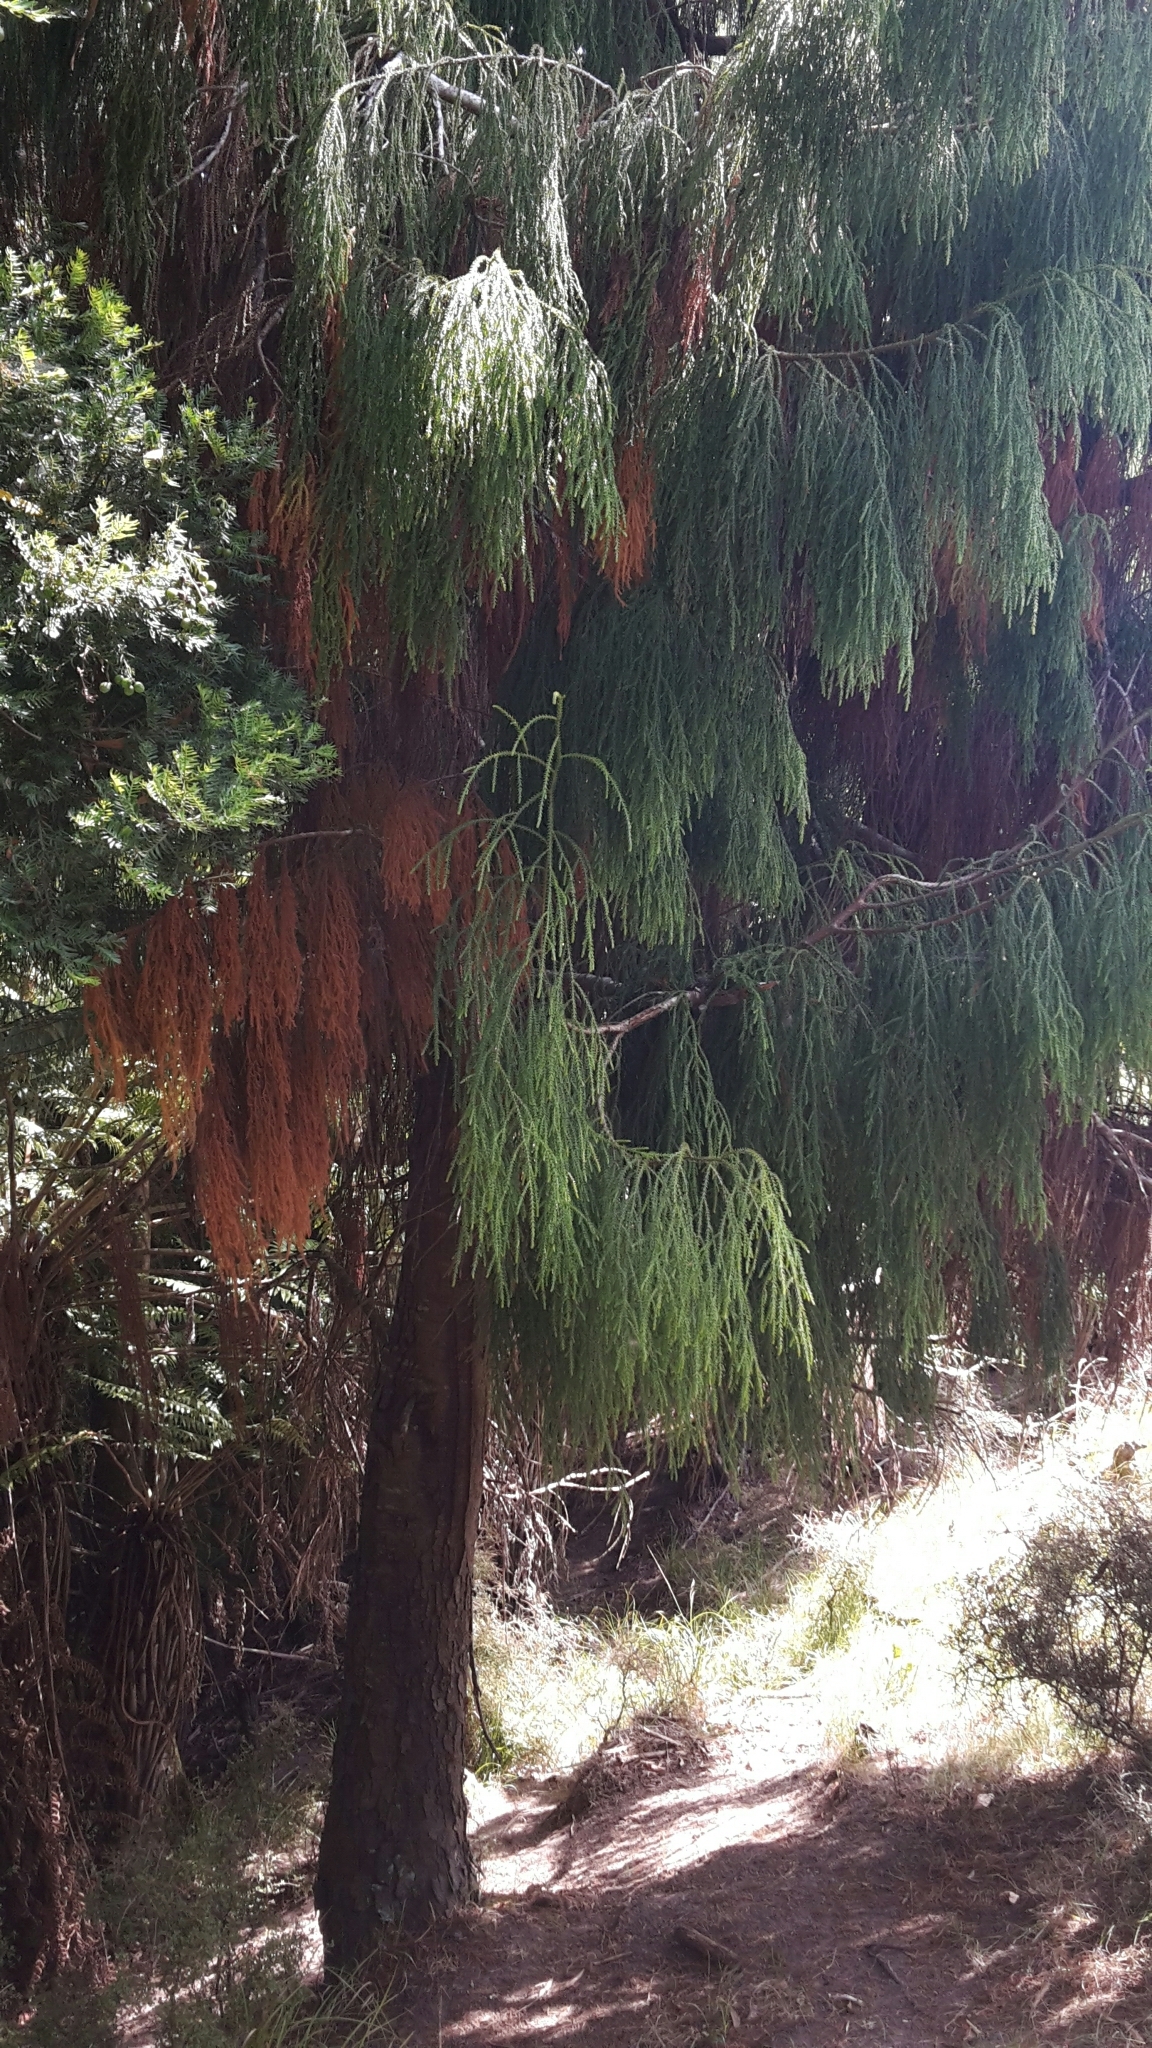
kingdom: Plantae
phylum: Tracheophyta
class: Pinopsida
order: Pinales
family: Podocarpaceae
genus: Dacrydium
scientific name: Dacrydium cupressinum
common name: Red pine
